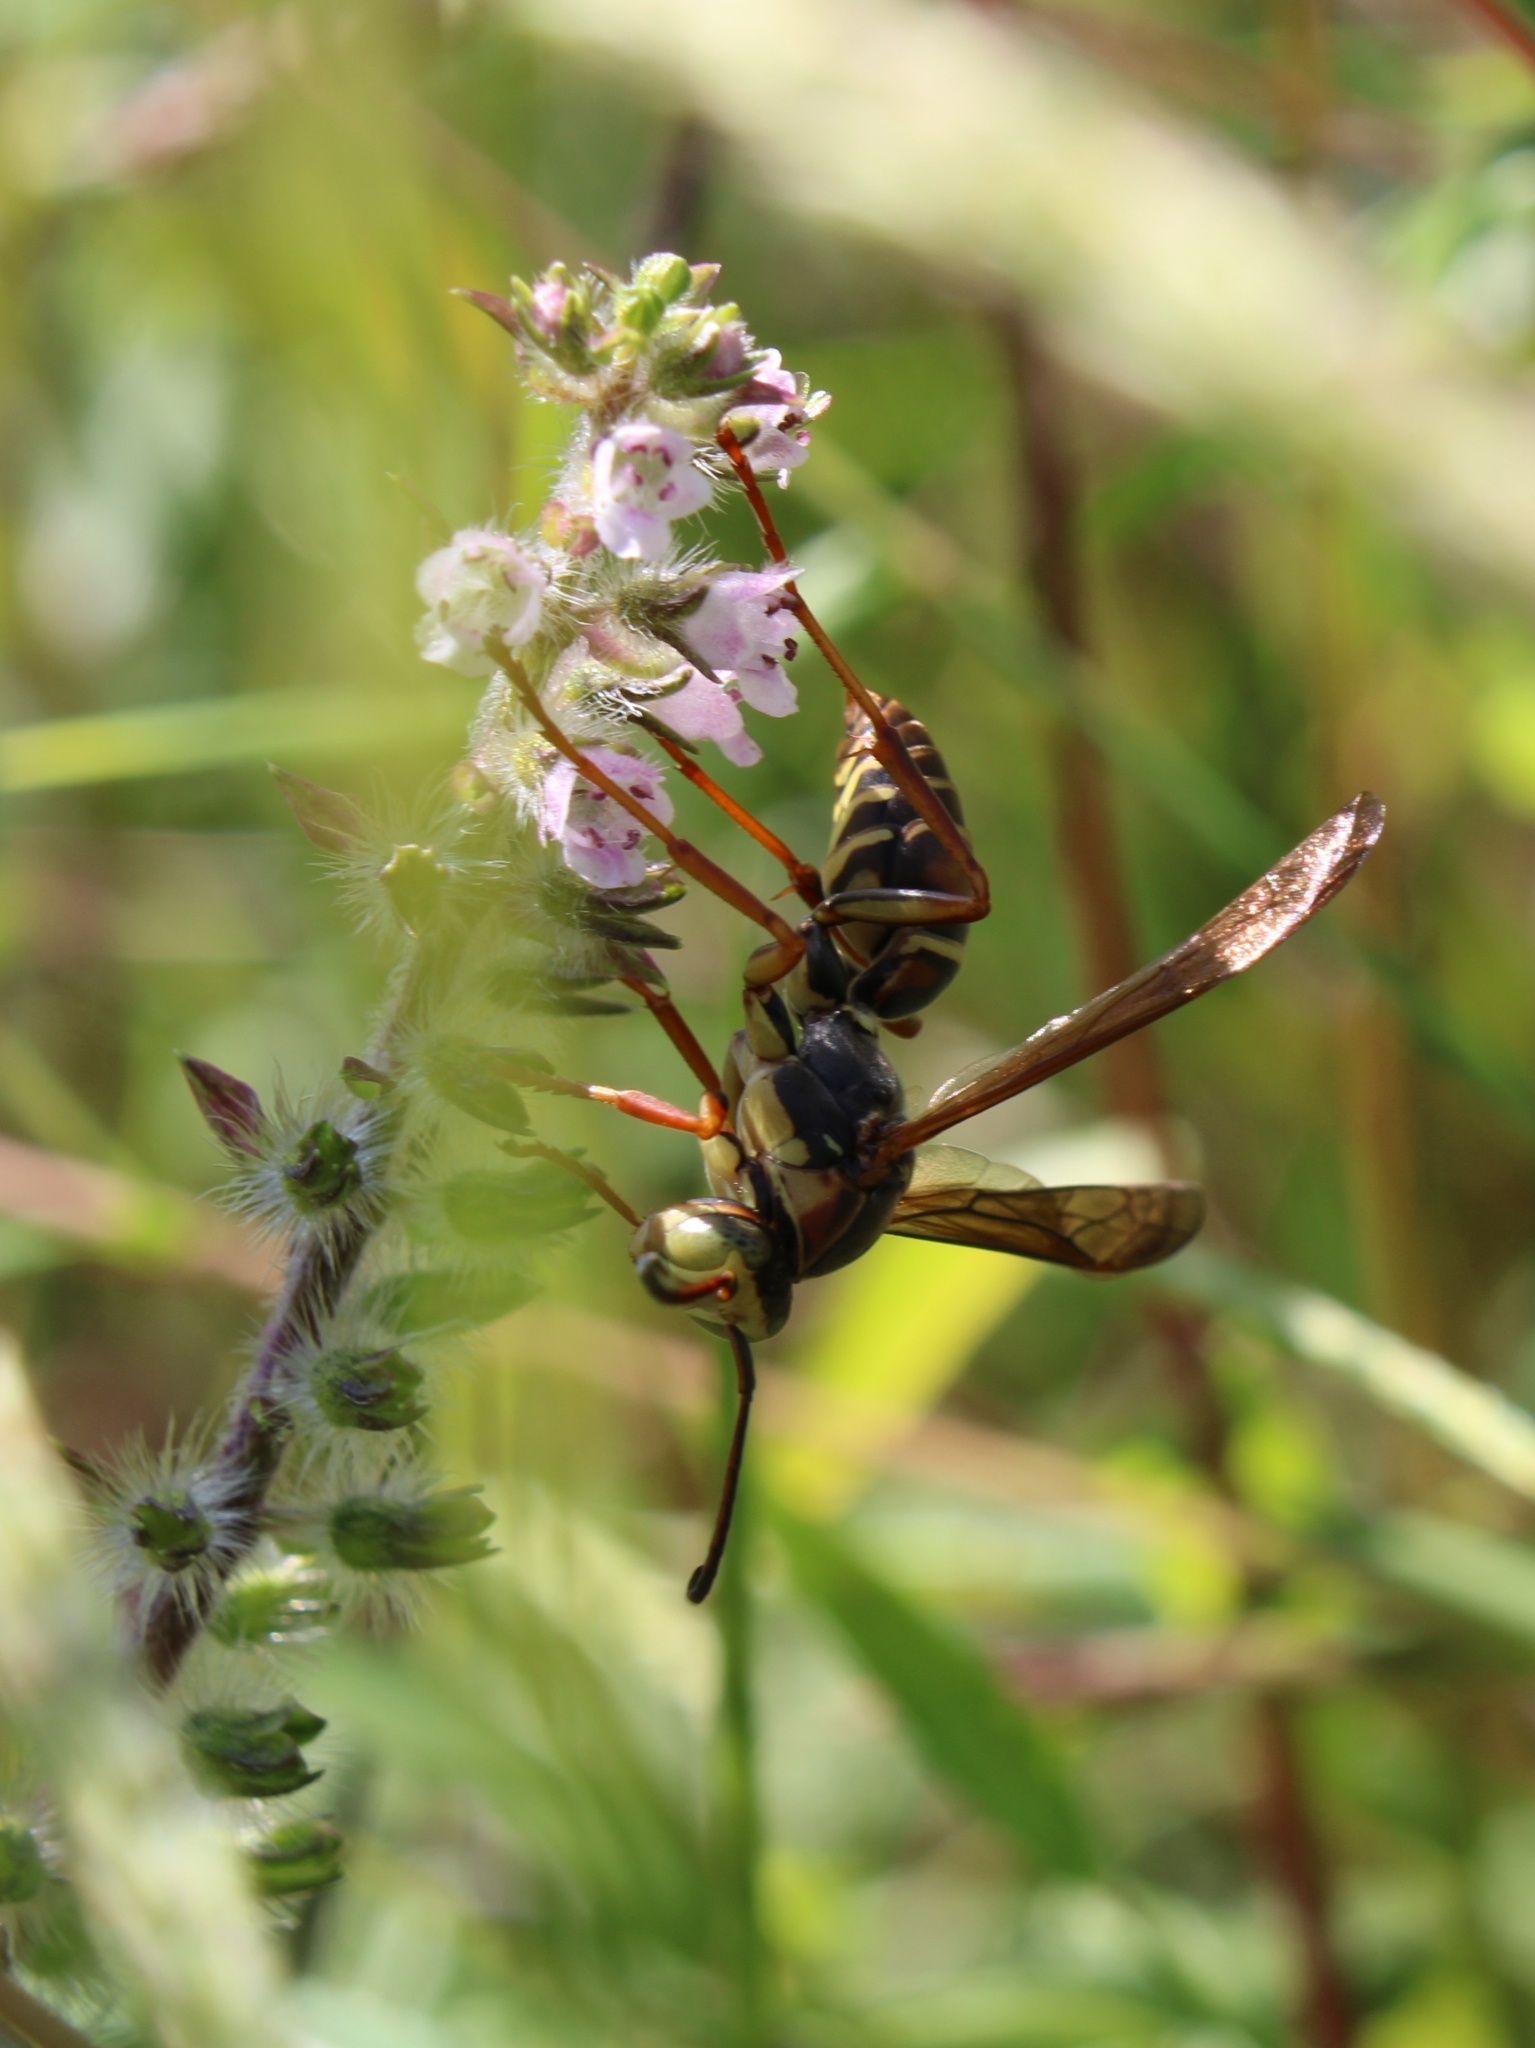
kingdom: Animalia
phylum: Arthropoda
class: Insecta
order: Hymenoptera
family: Eumenidae
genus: Polistes
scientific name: Polistes fuscatus
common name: Dark paper wasp
